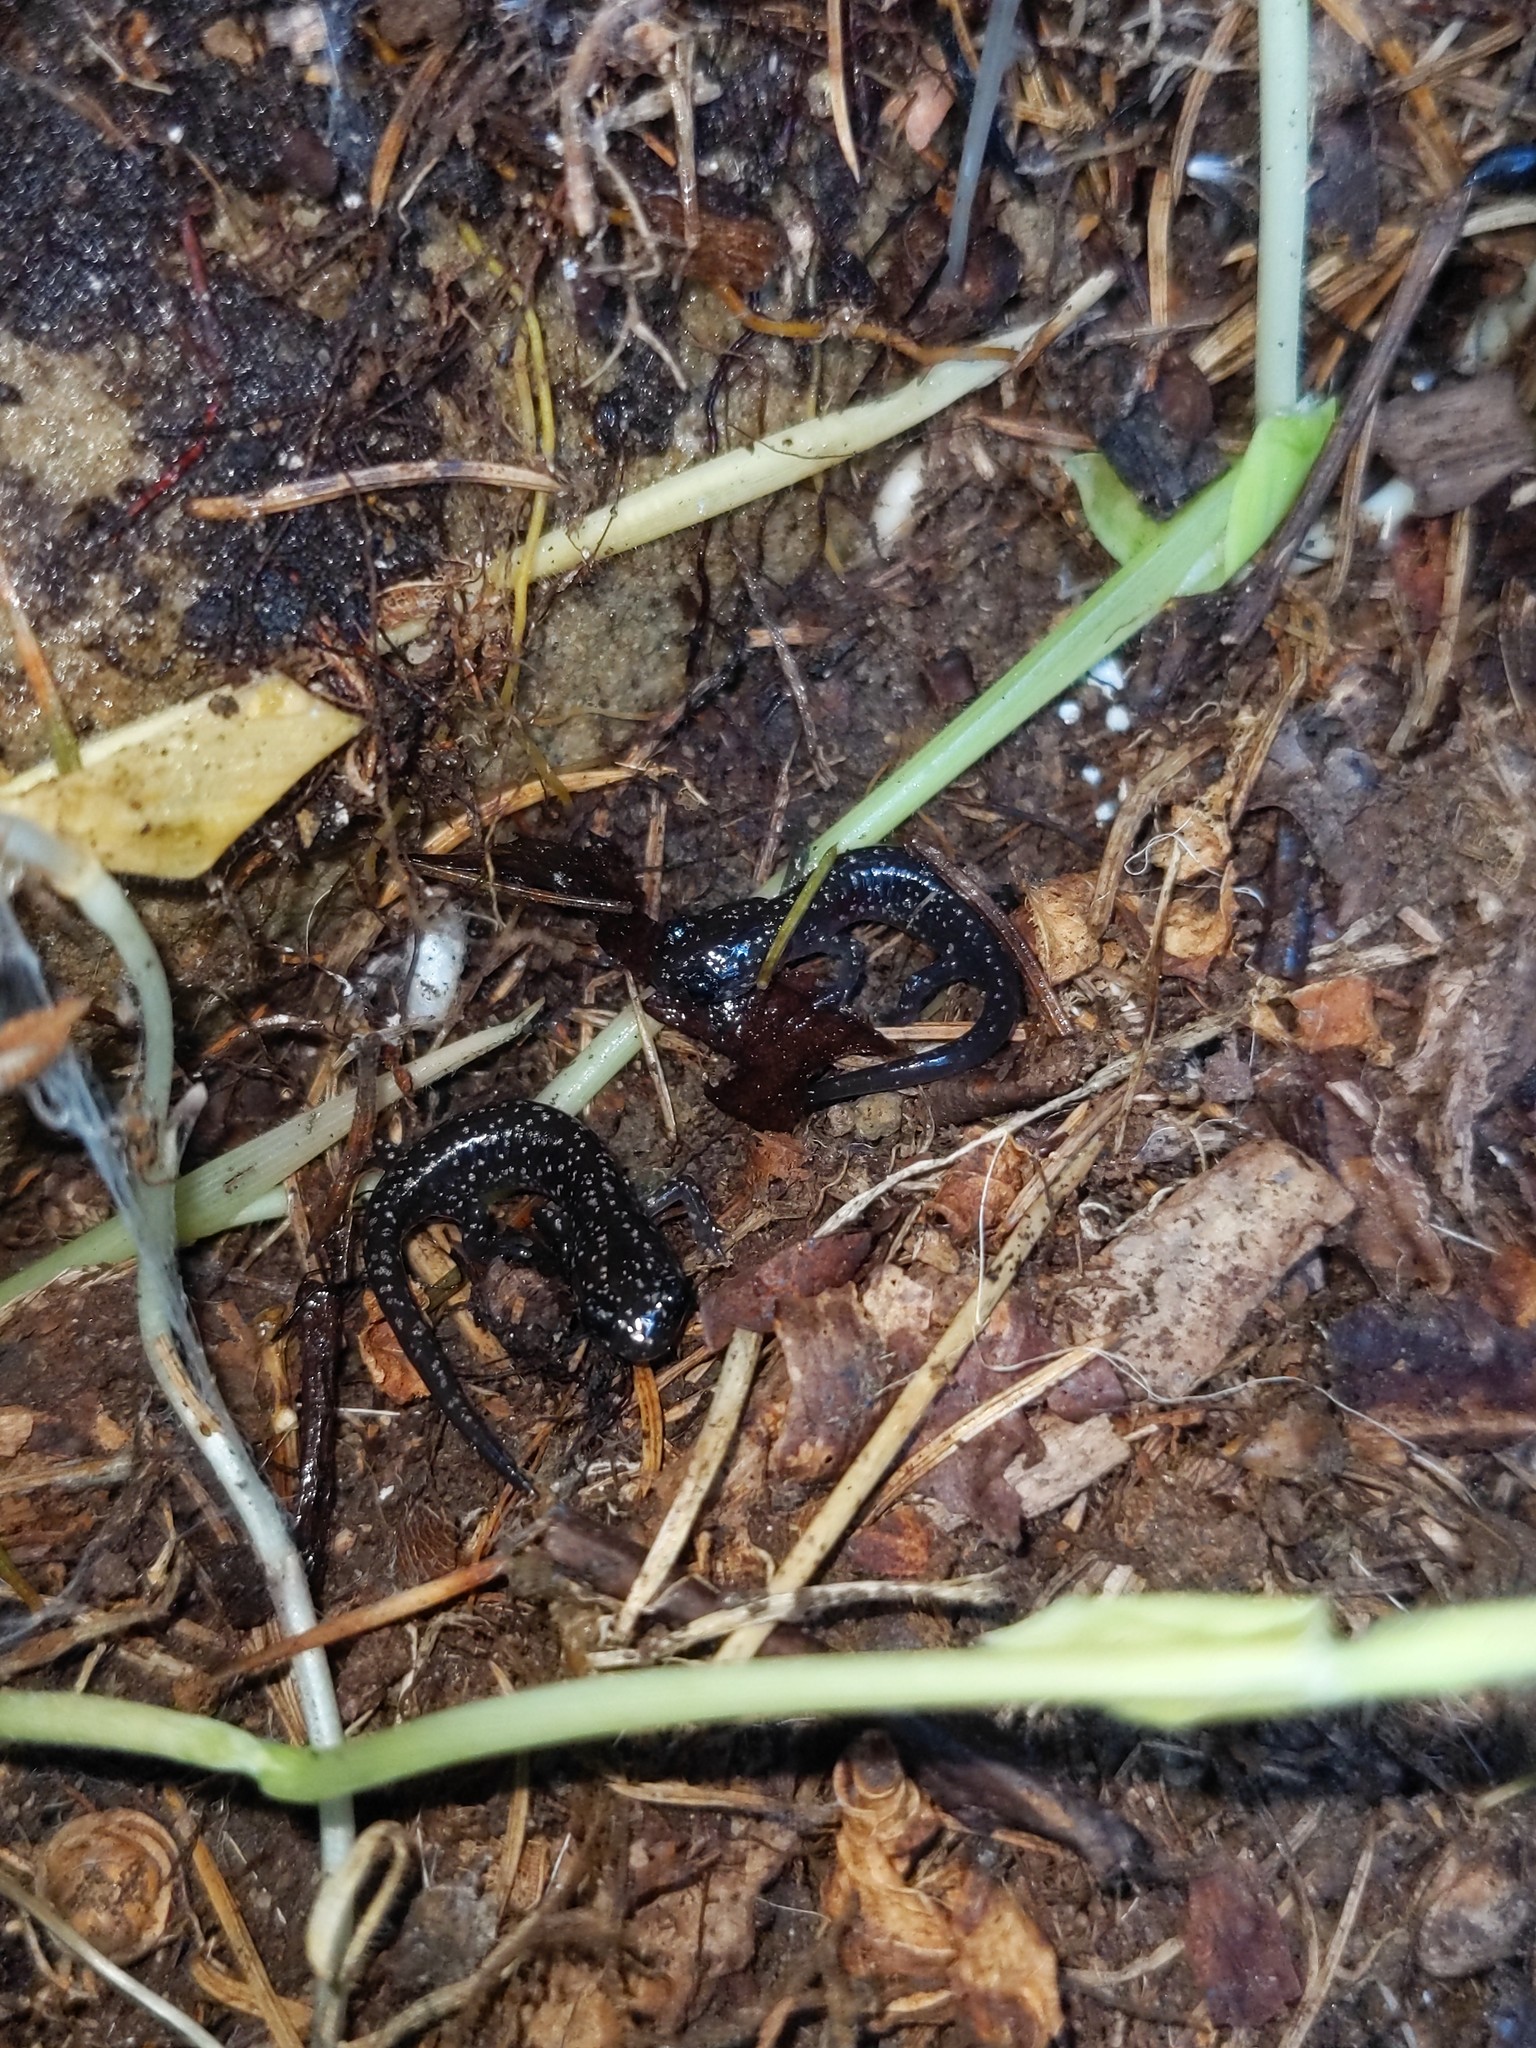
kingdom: Animalia
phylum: Chordata
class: Amphibia
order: Caudata
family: Plethodontidae
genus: Plethodon
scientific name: Plethodon glutinosus
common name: Northern slimy salamander
